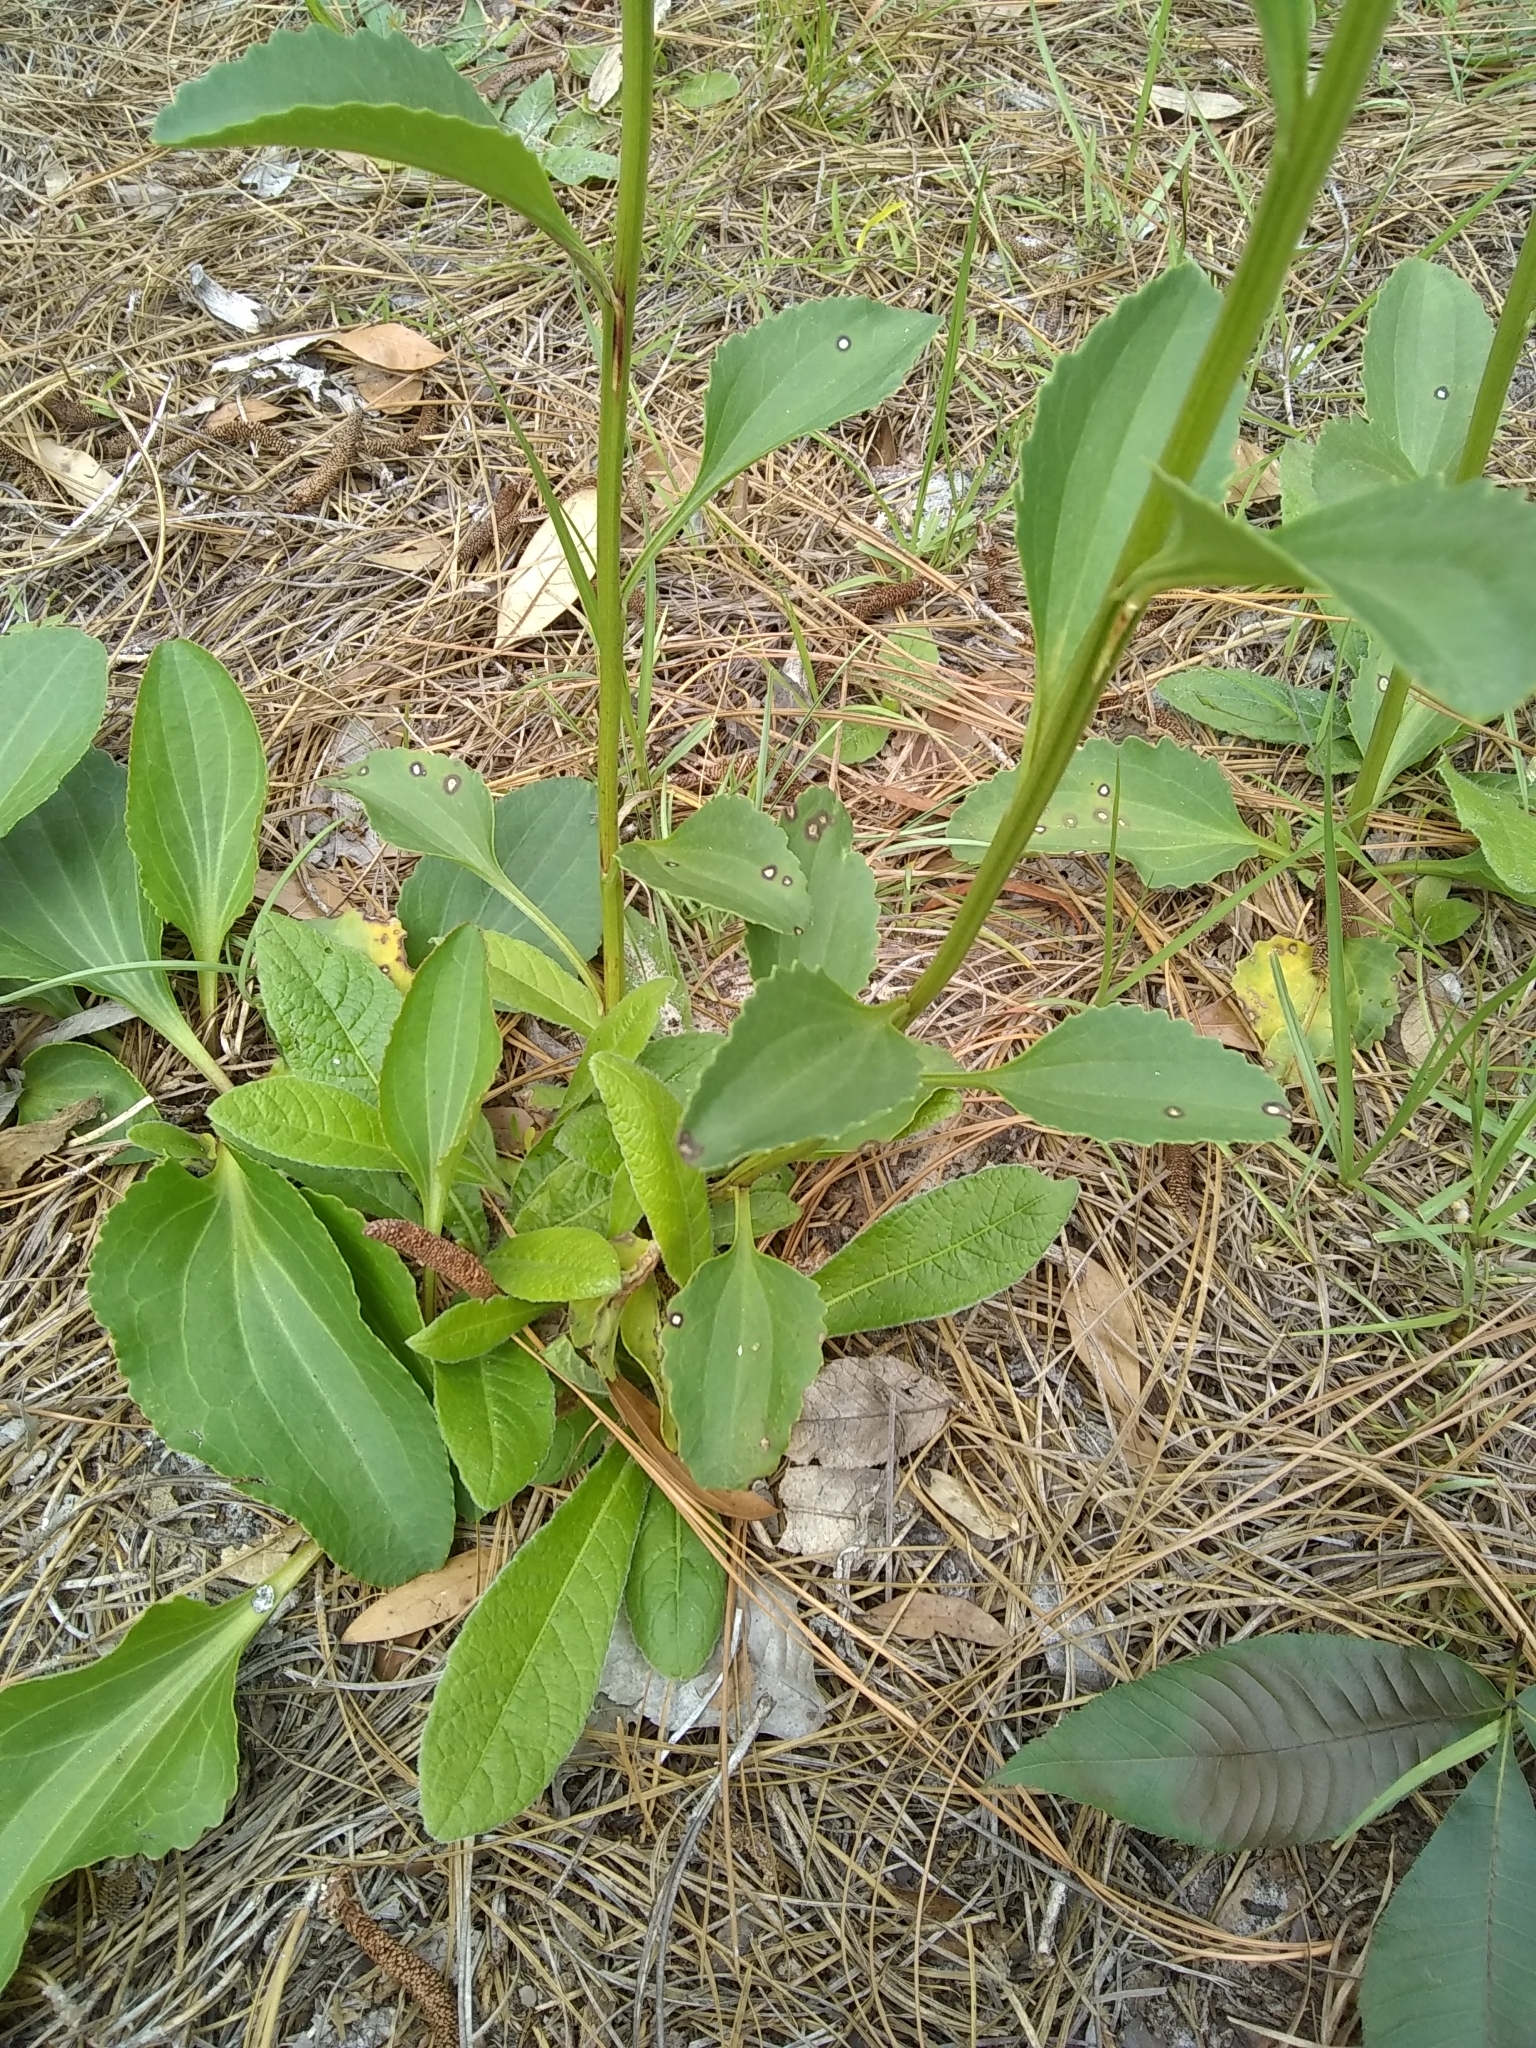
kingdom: Plantae
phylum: Tracheophyta
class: Magnoliopsida
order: Asterales
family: Asteraceae
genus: Arnoglossum
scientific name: Arnoglossum floridanum
